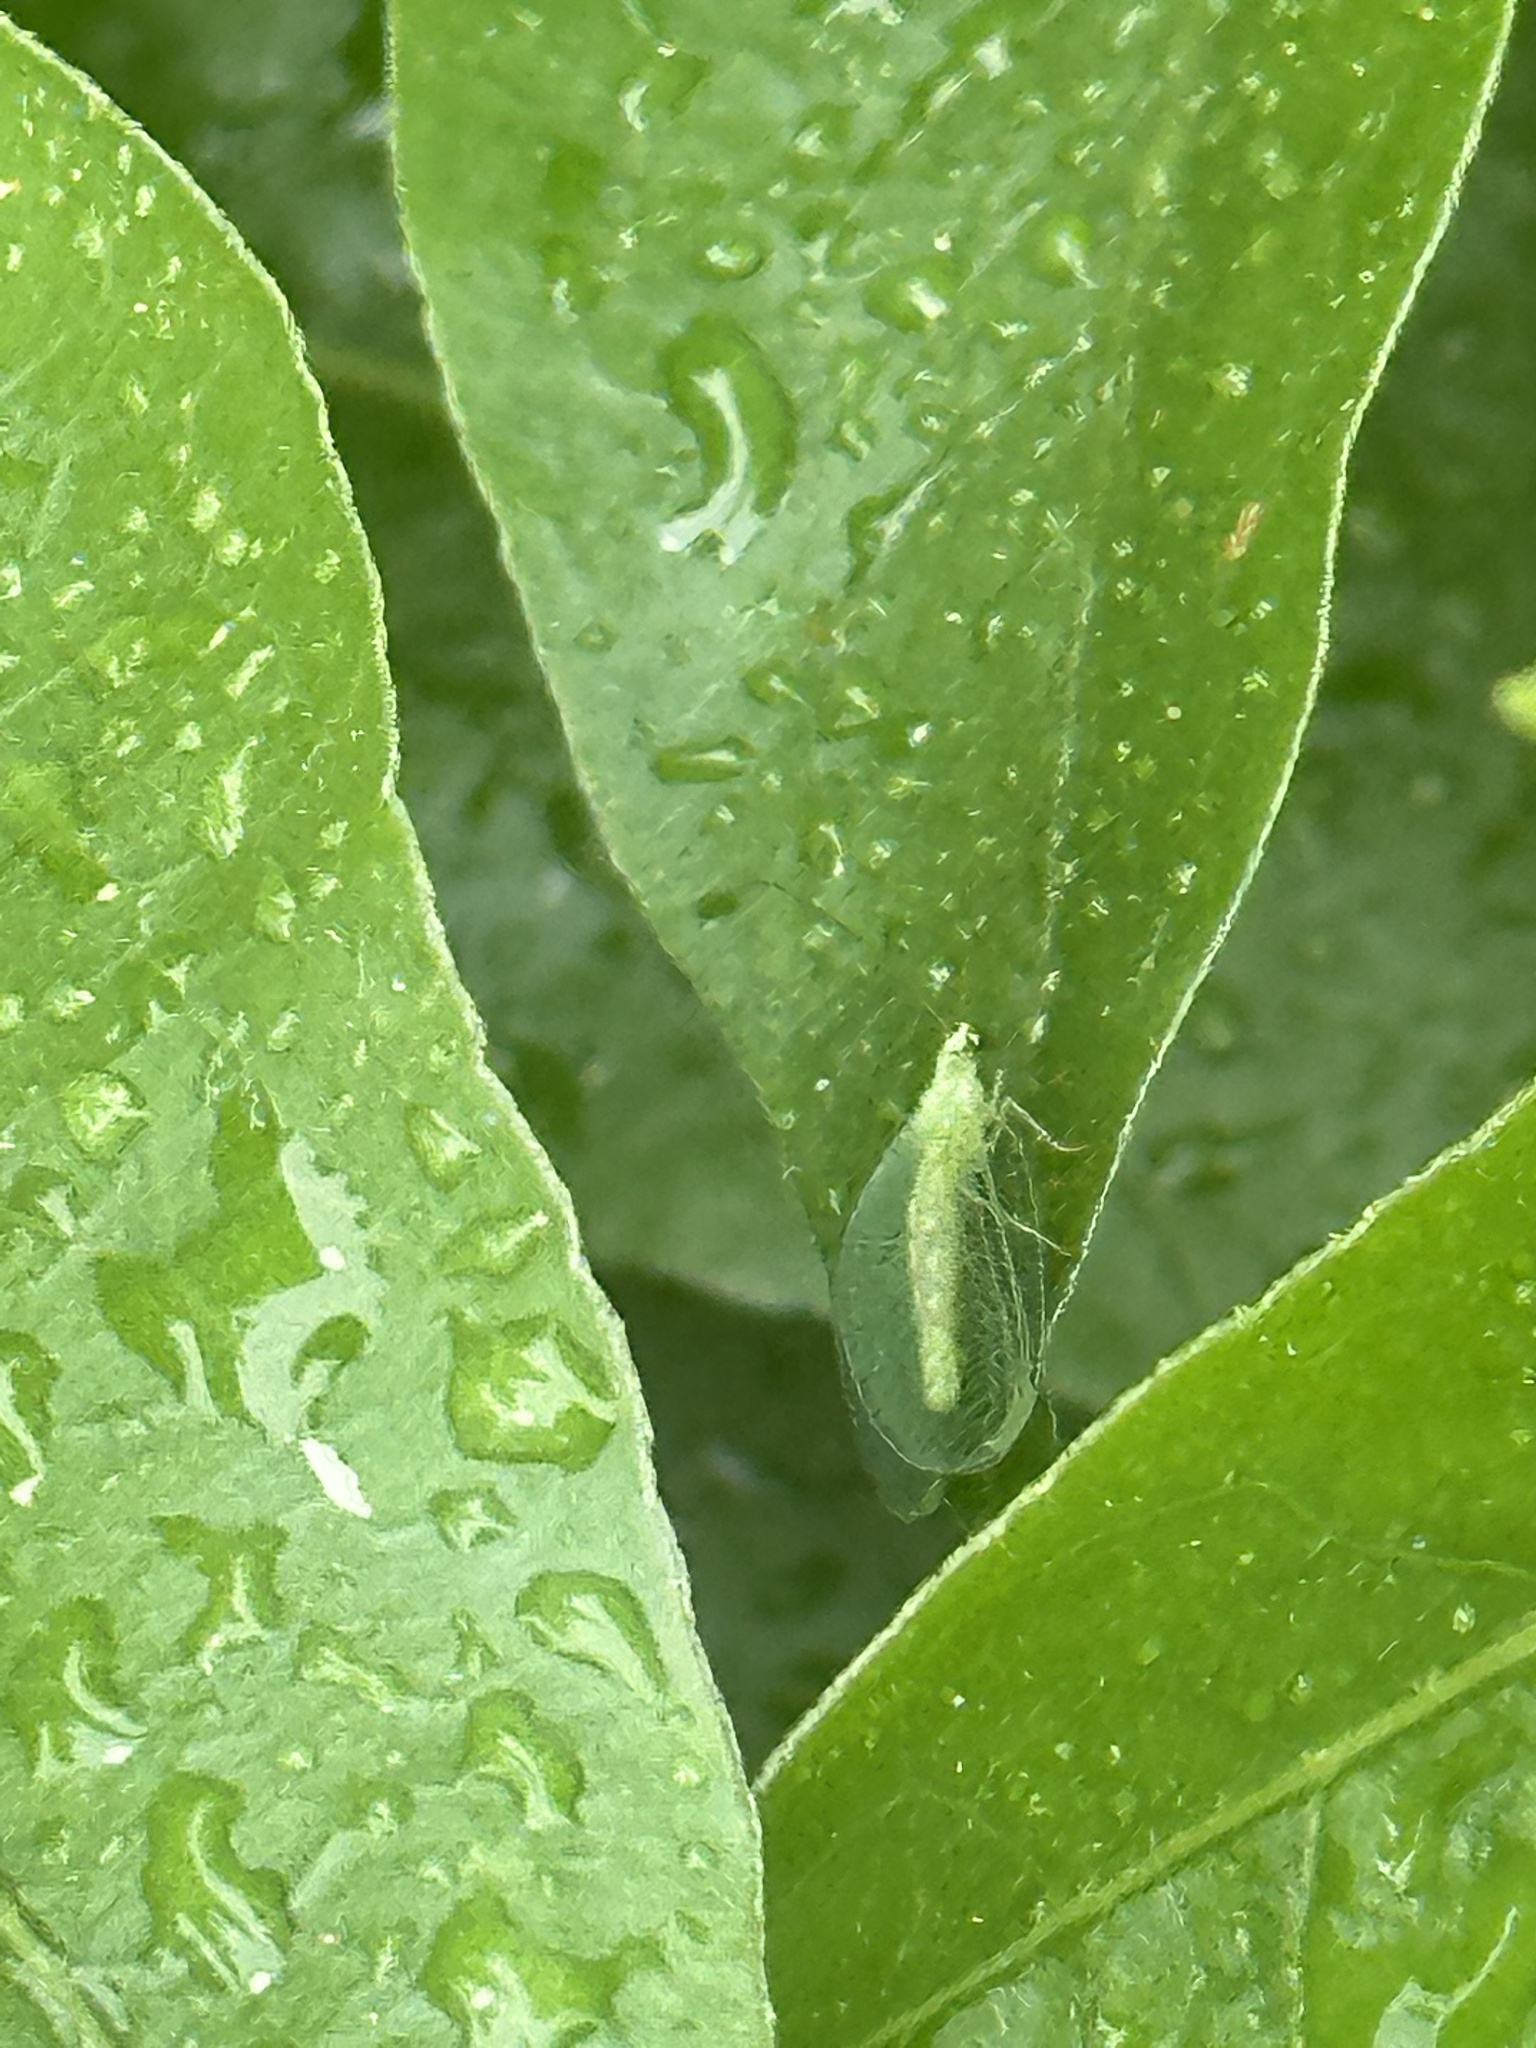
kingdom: Animalia
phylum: Arthropoda
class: Insecta
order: Neuroptera
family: Chrysopidae
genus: Chrysopa
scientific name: Chrysopa oculata
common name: Golden-eyed lacewing
